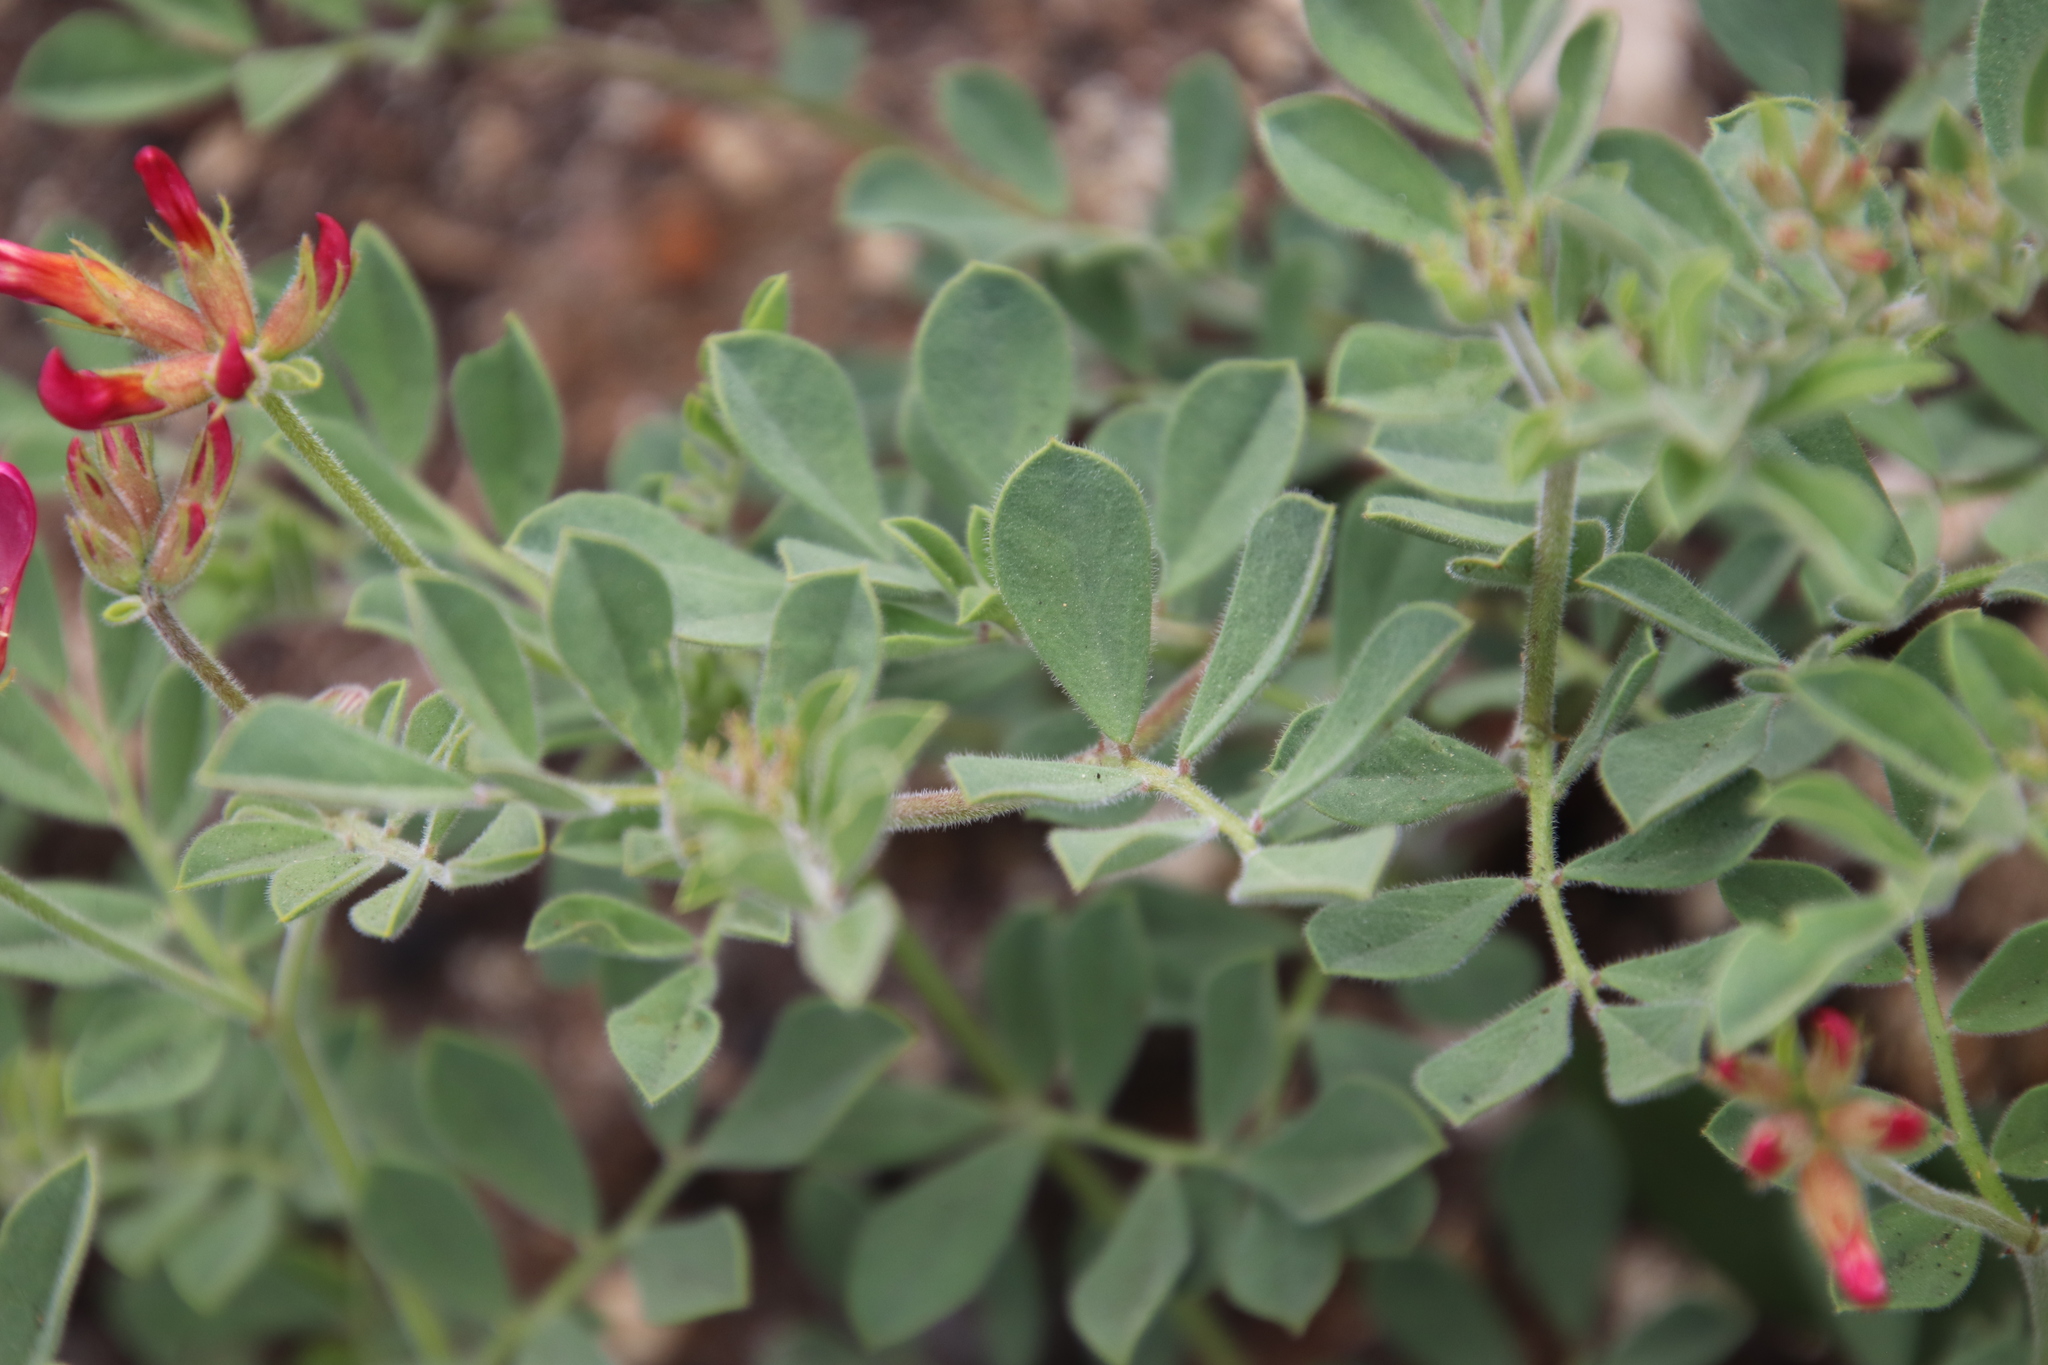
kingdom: Plantae
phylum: Tracheophyta
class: Magnoliopsida
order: Fabales
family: Fabaceae
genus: Acmispon
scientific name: Acmispon grandiflorus
